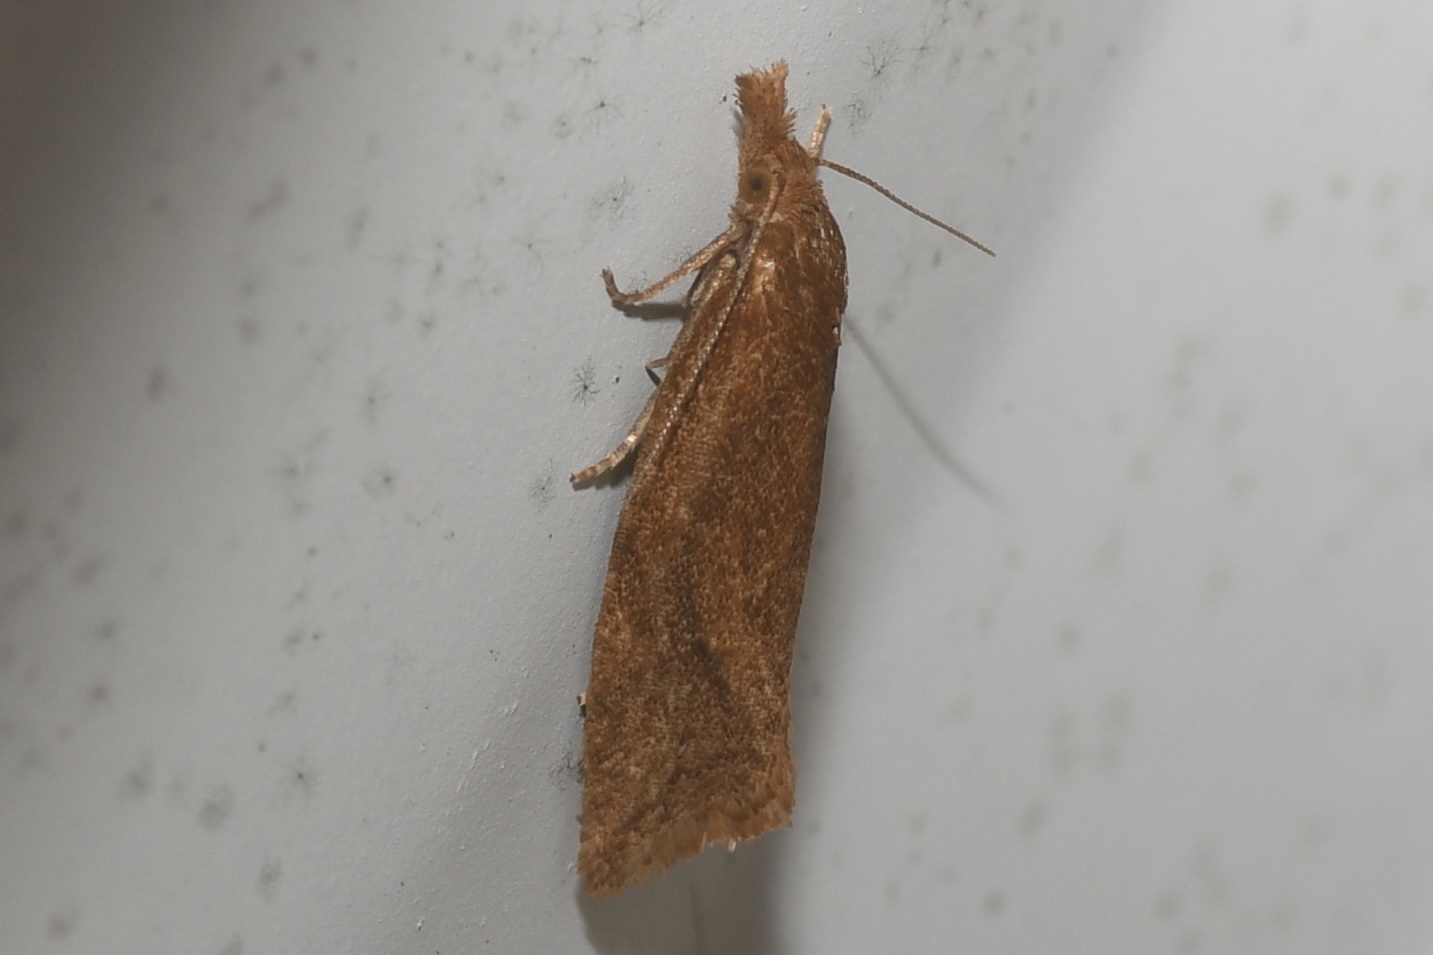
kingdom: Animalia
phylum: Arthropoda
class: Insecta
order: Lepidoptera
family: Tortricidae
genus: Aethes
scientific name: Aethes biscana
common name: Reddish aethes
